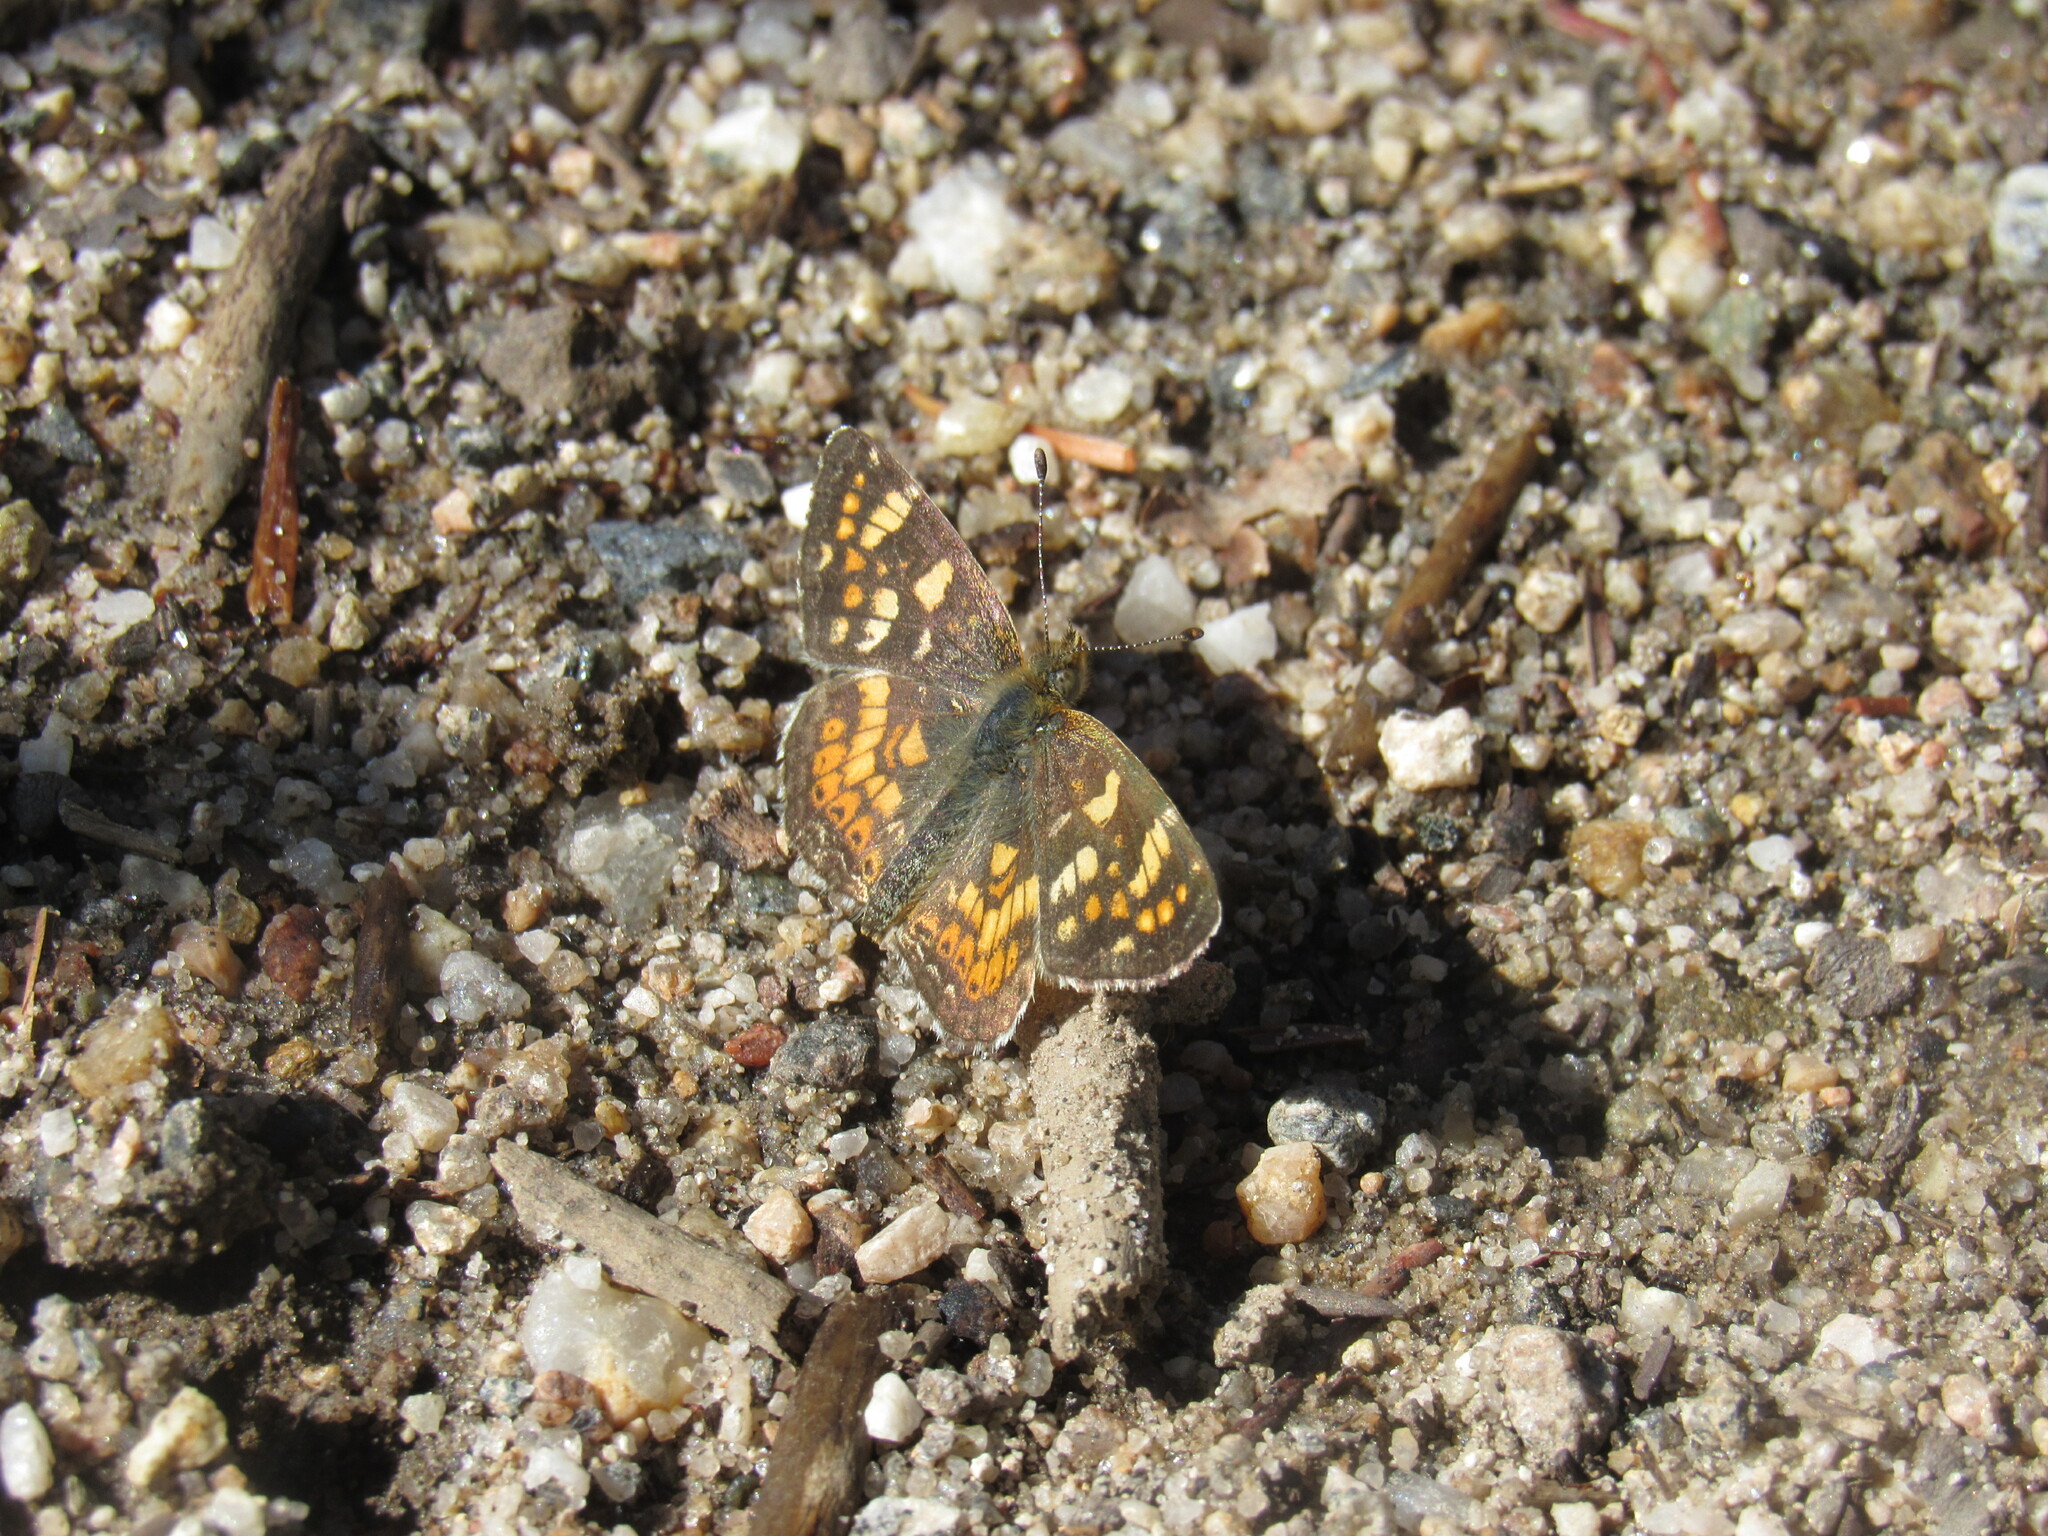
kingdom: Animalia
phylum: Arthropoda
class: Insecta
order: Lepidoptera
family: Nymphalidae
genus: Phyciodes
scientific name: Phyciodes tharos
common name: Pearl crescent
